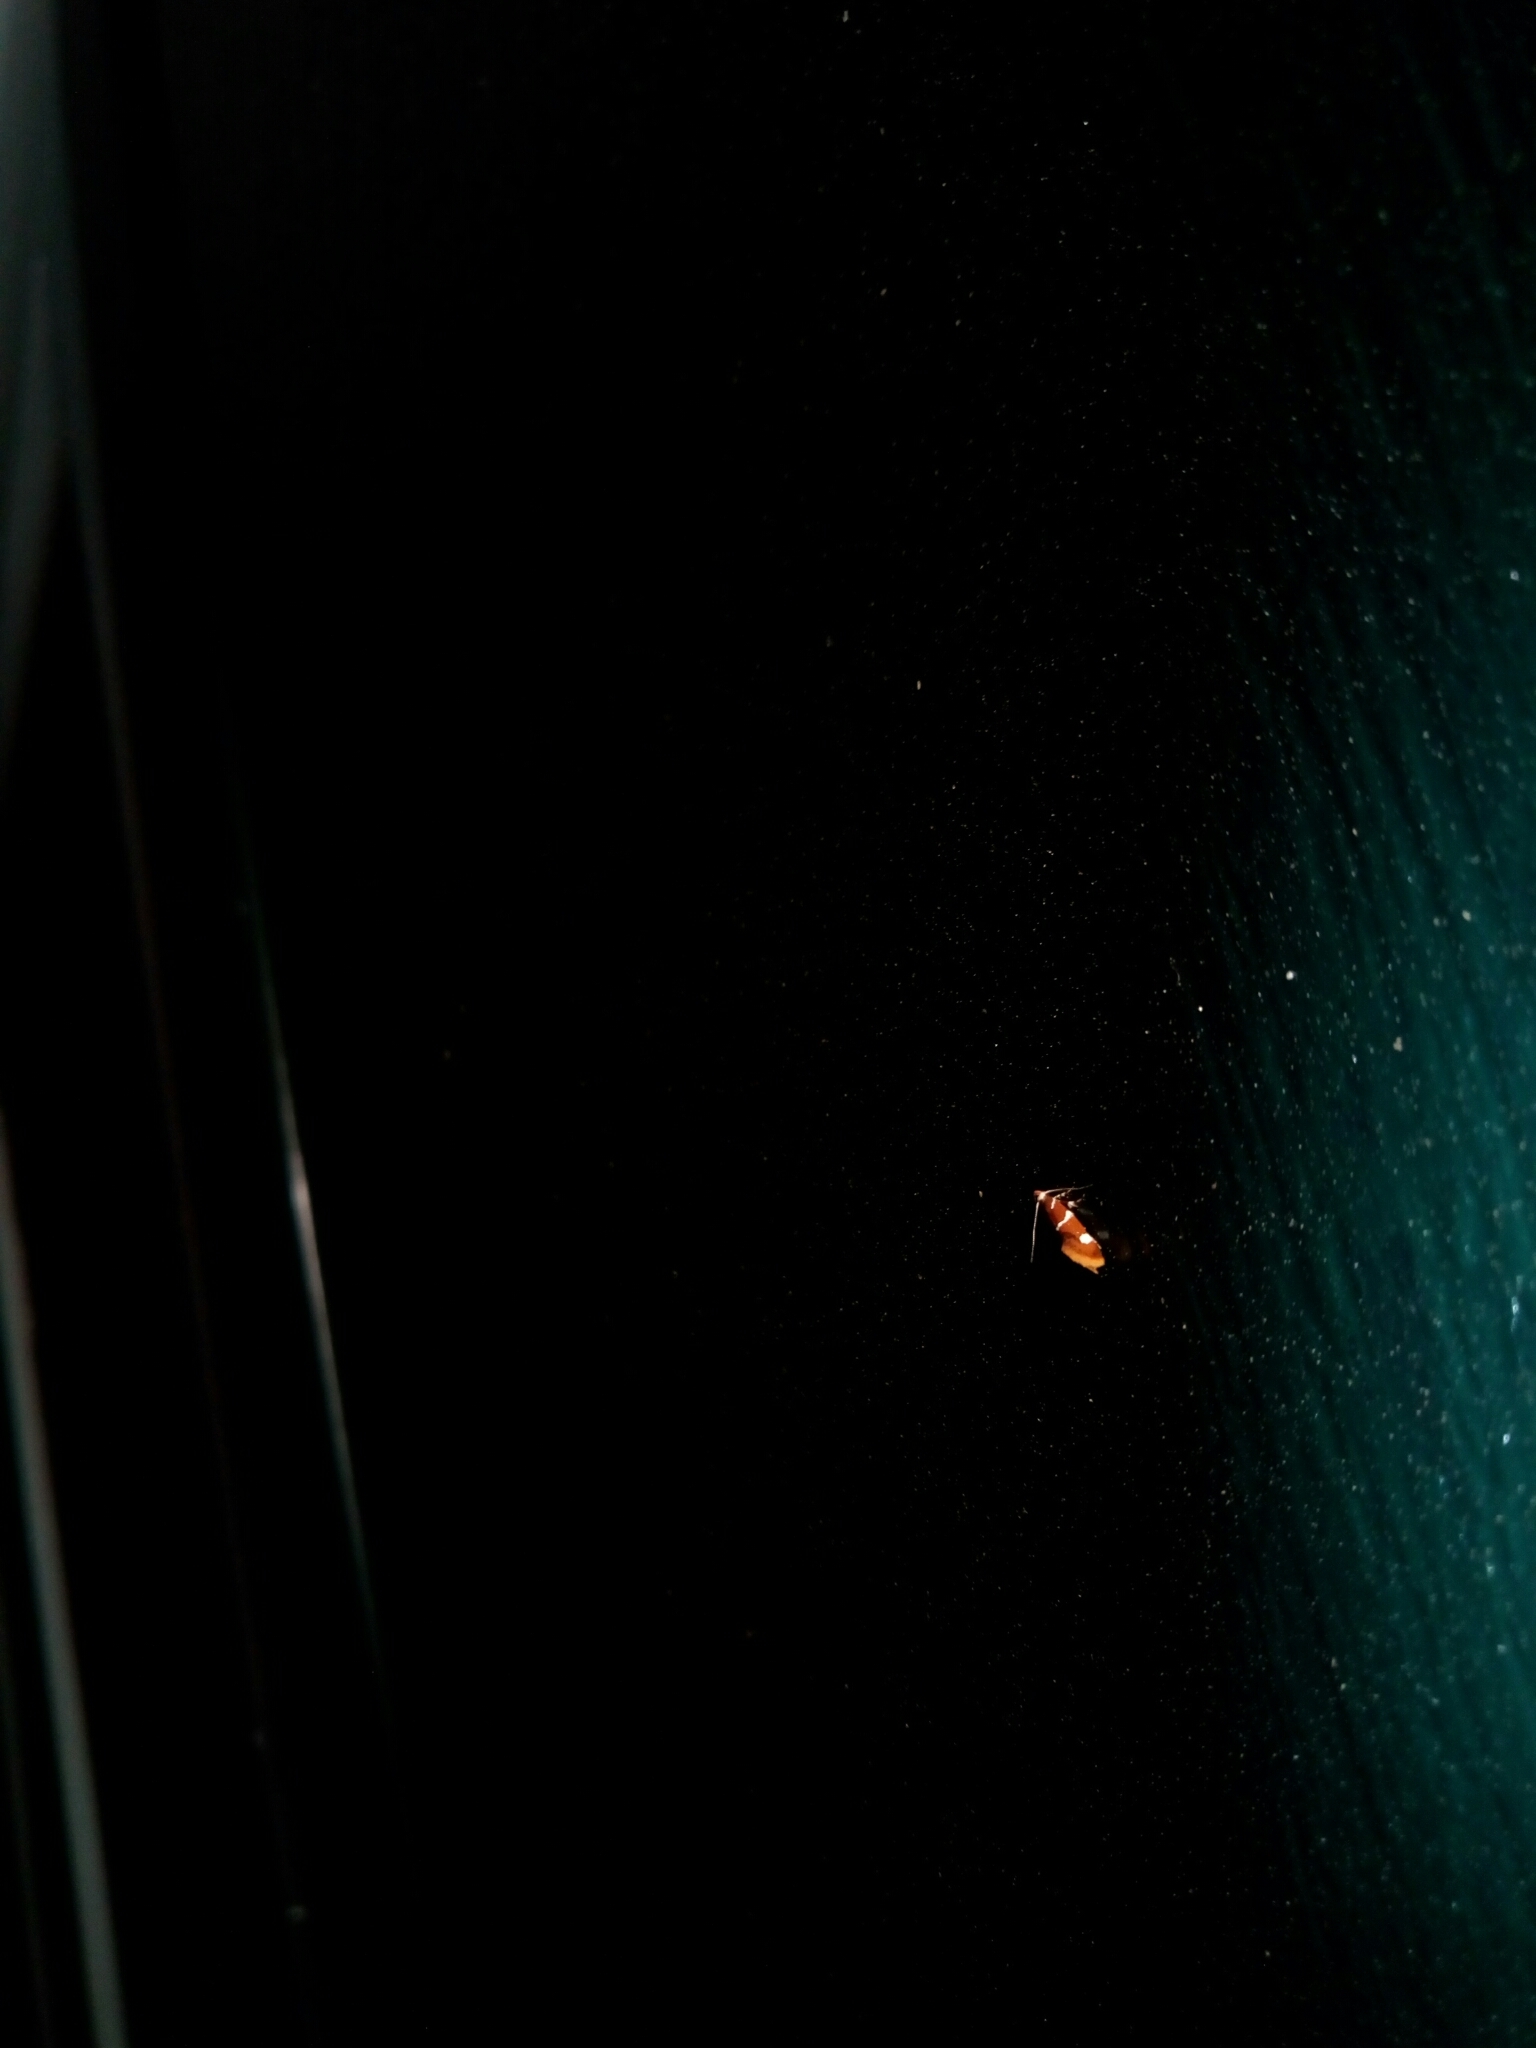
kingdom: Animalia
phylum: Arthropoda
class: Insecta
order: Lepidoptera
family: Oecophoridae
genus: Promalactis
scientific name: Promalactis suzukiella
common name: Moth
